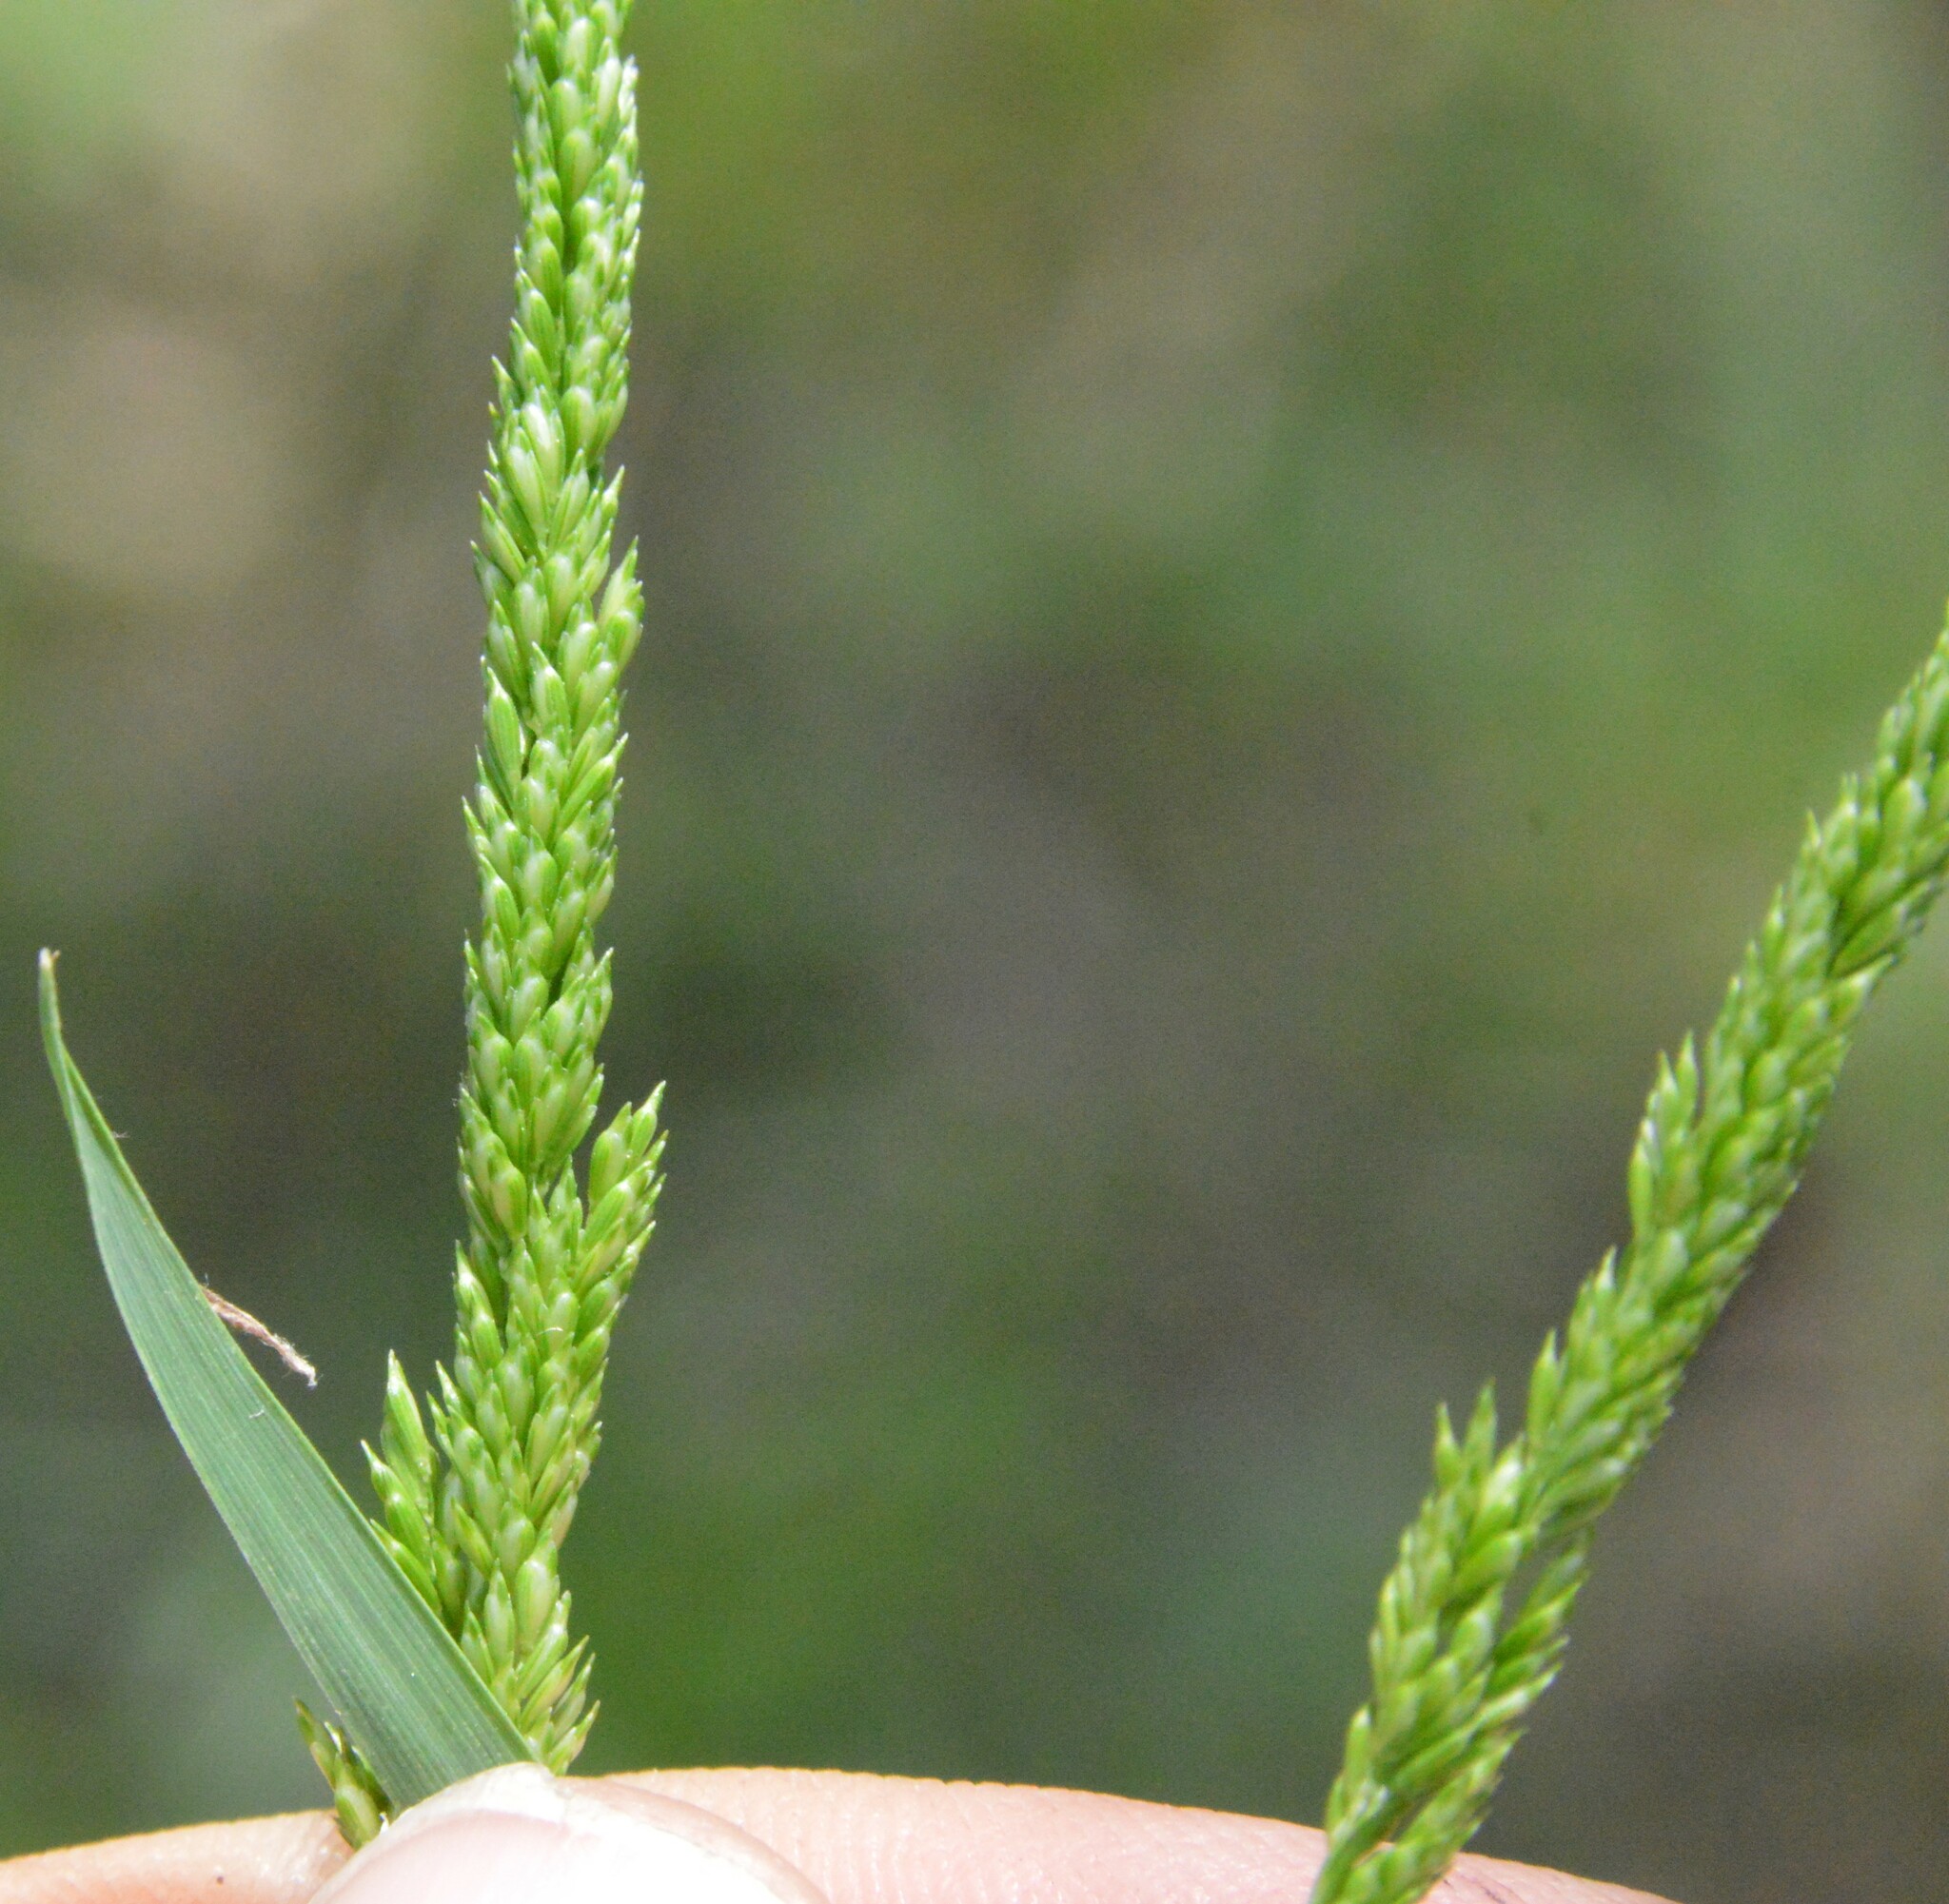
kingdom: Plantae
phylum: Tracheophyta
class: Liliopsida
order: Poales
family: Poaceae
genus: Sphenopholis
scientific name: Sphenopholis obtusata
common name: Prairie grass
